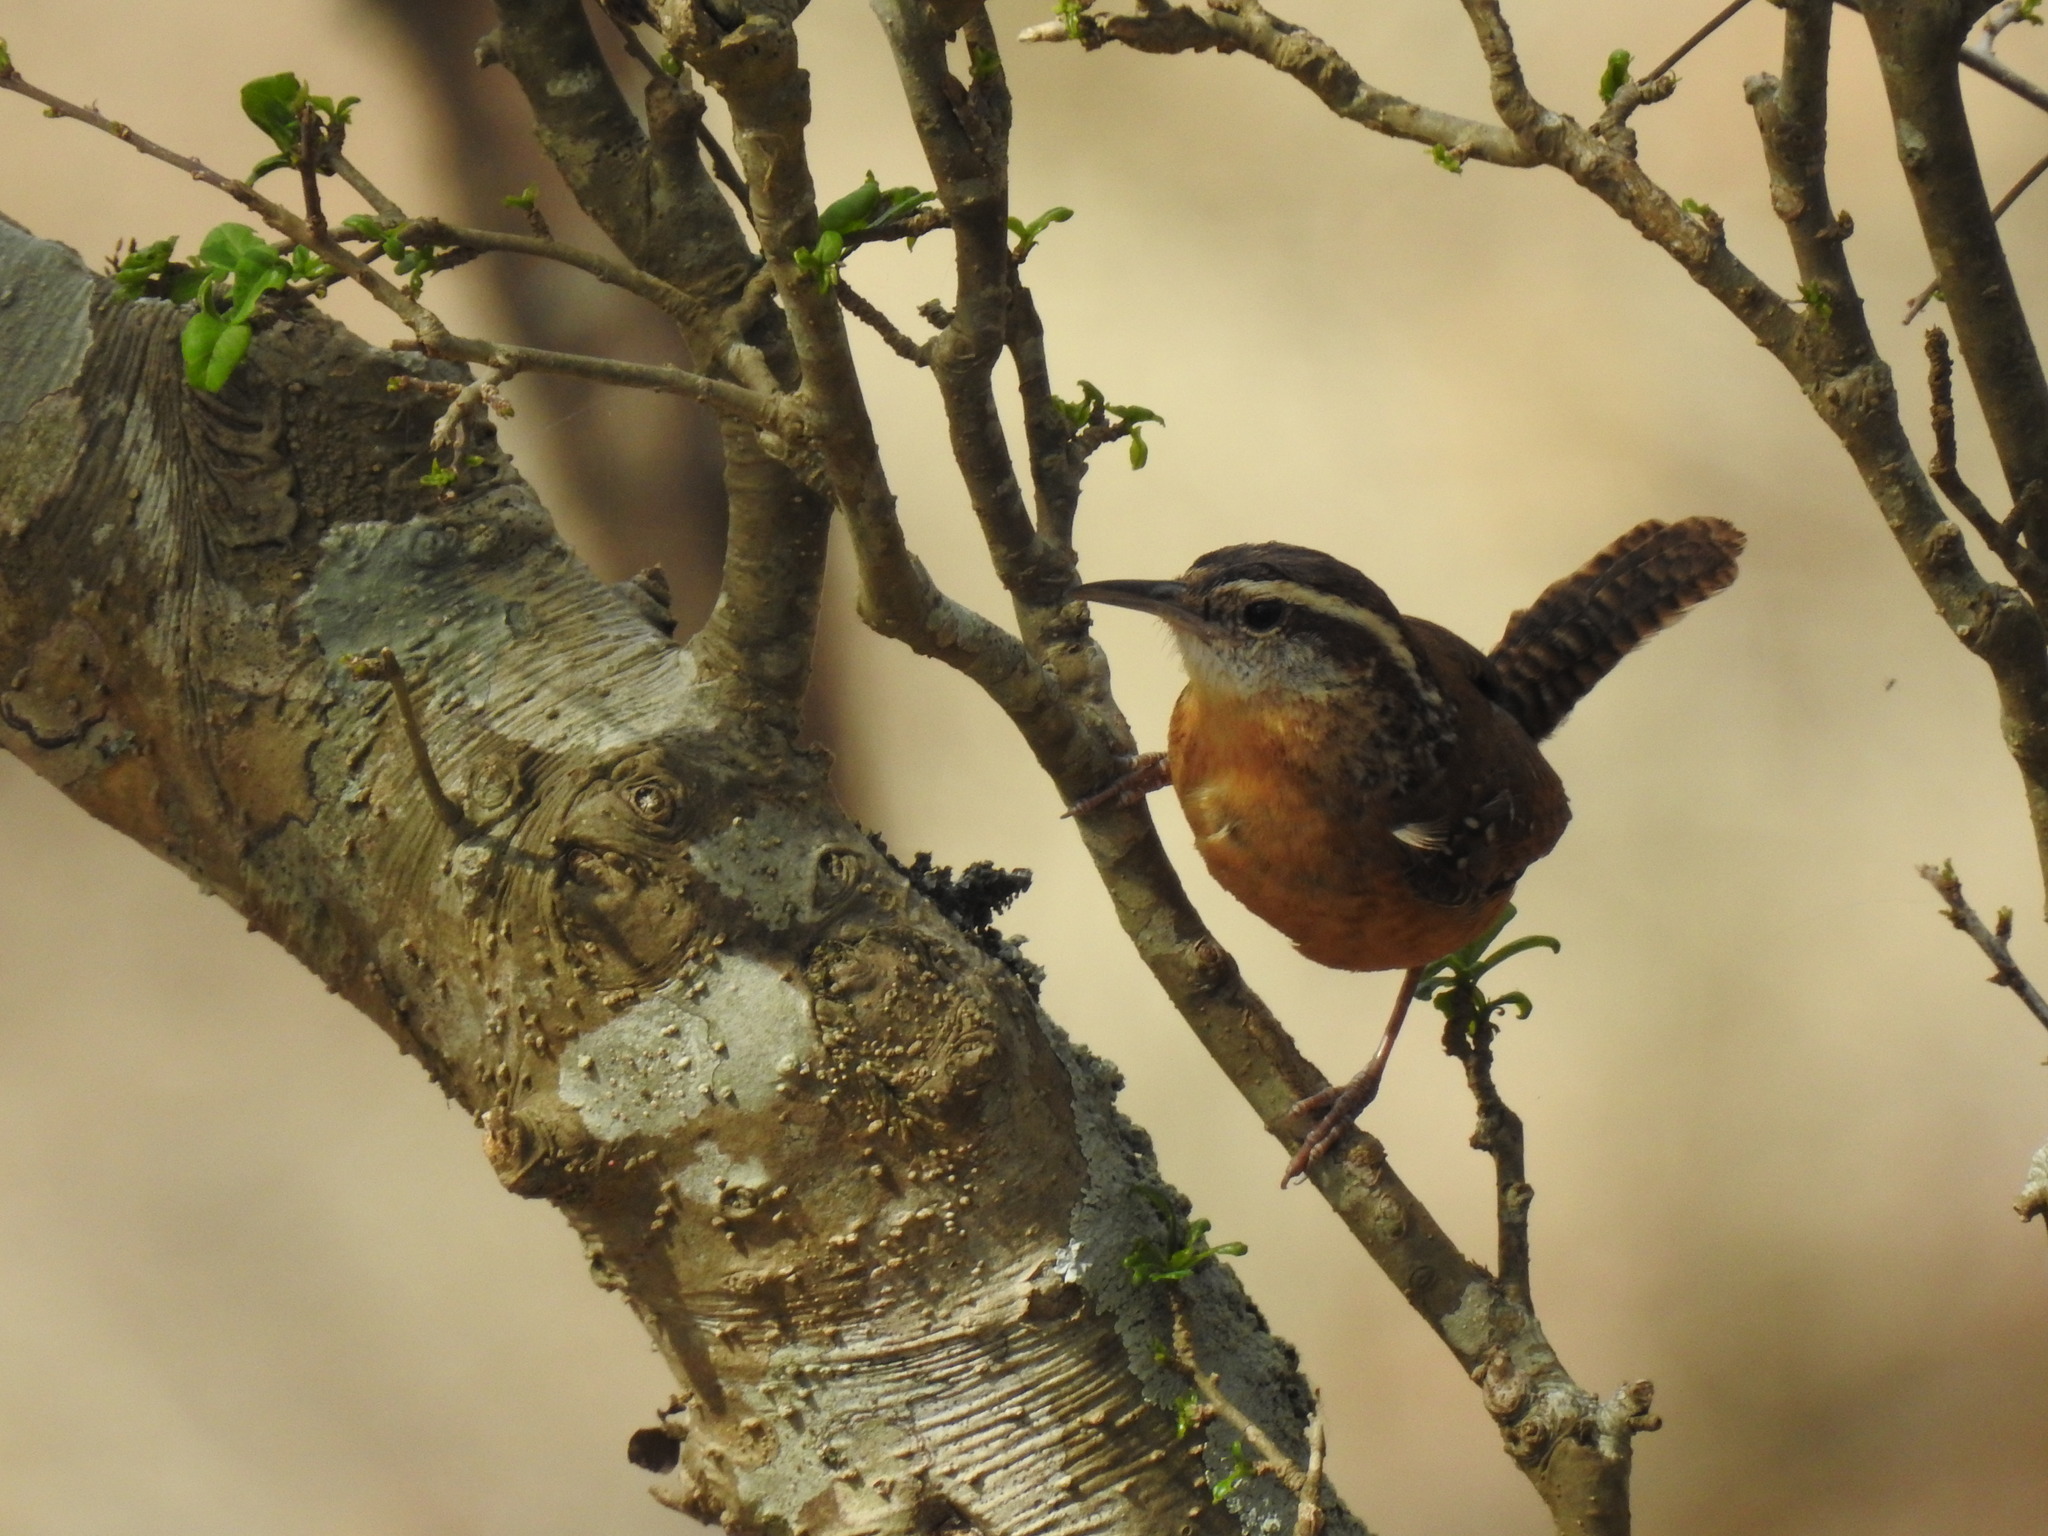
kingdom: Animalia
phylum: Chordata
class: Aves
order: Passeriformes
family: Troglodytidae
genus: Thryothorus
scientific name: Thryothorus ludovicianus
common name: Carolina wren
